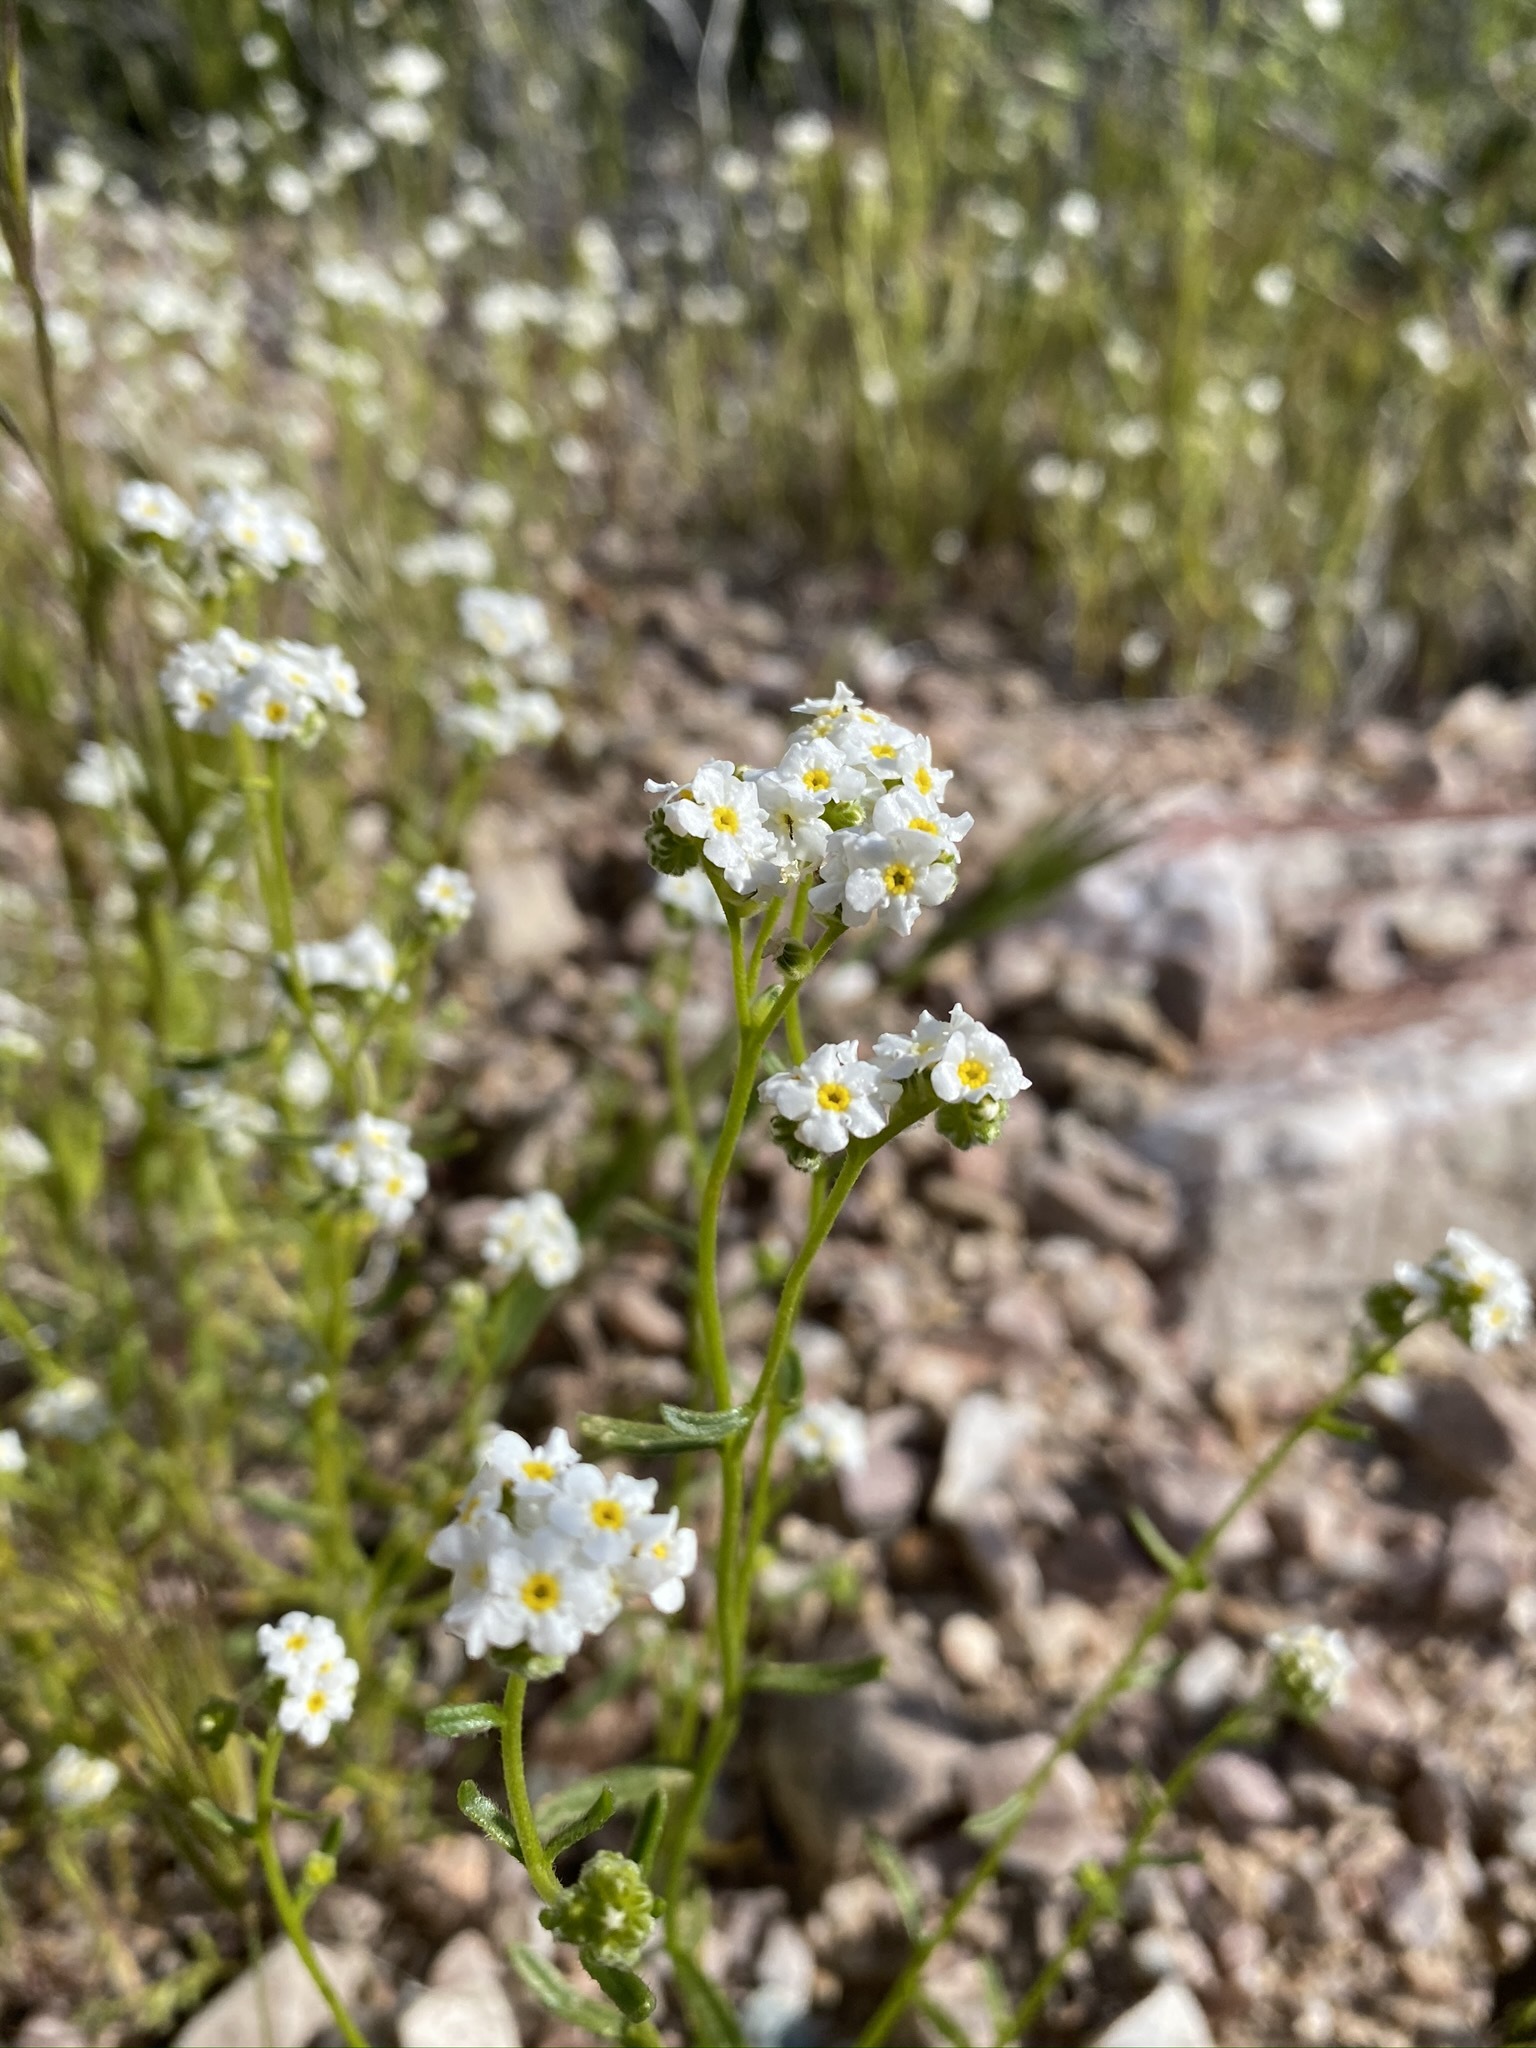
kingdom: Plantae
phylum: Tracheophyta
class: Magnoliopsida
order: Boraginales
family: Boraginaceae
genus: Cryptantha
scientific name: Cryptantha utahensis
